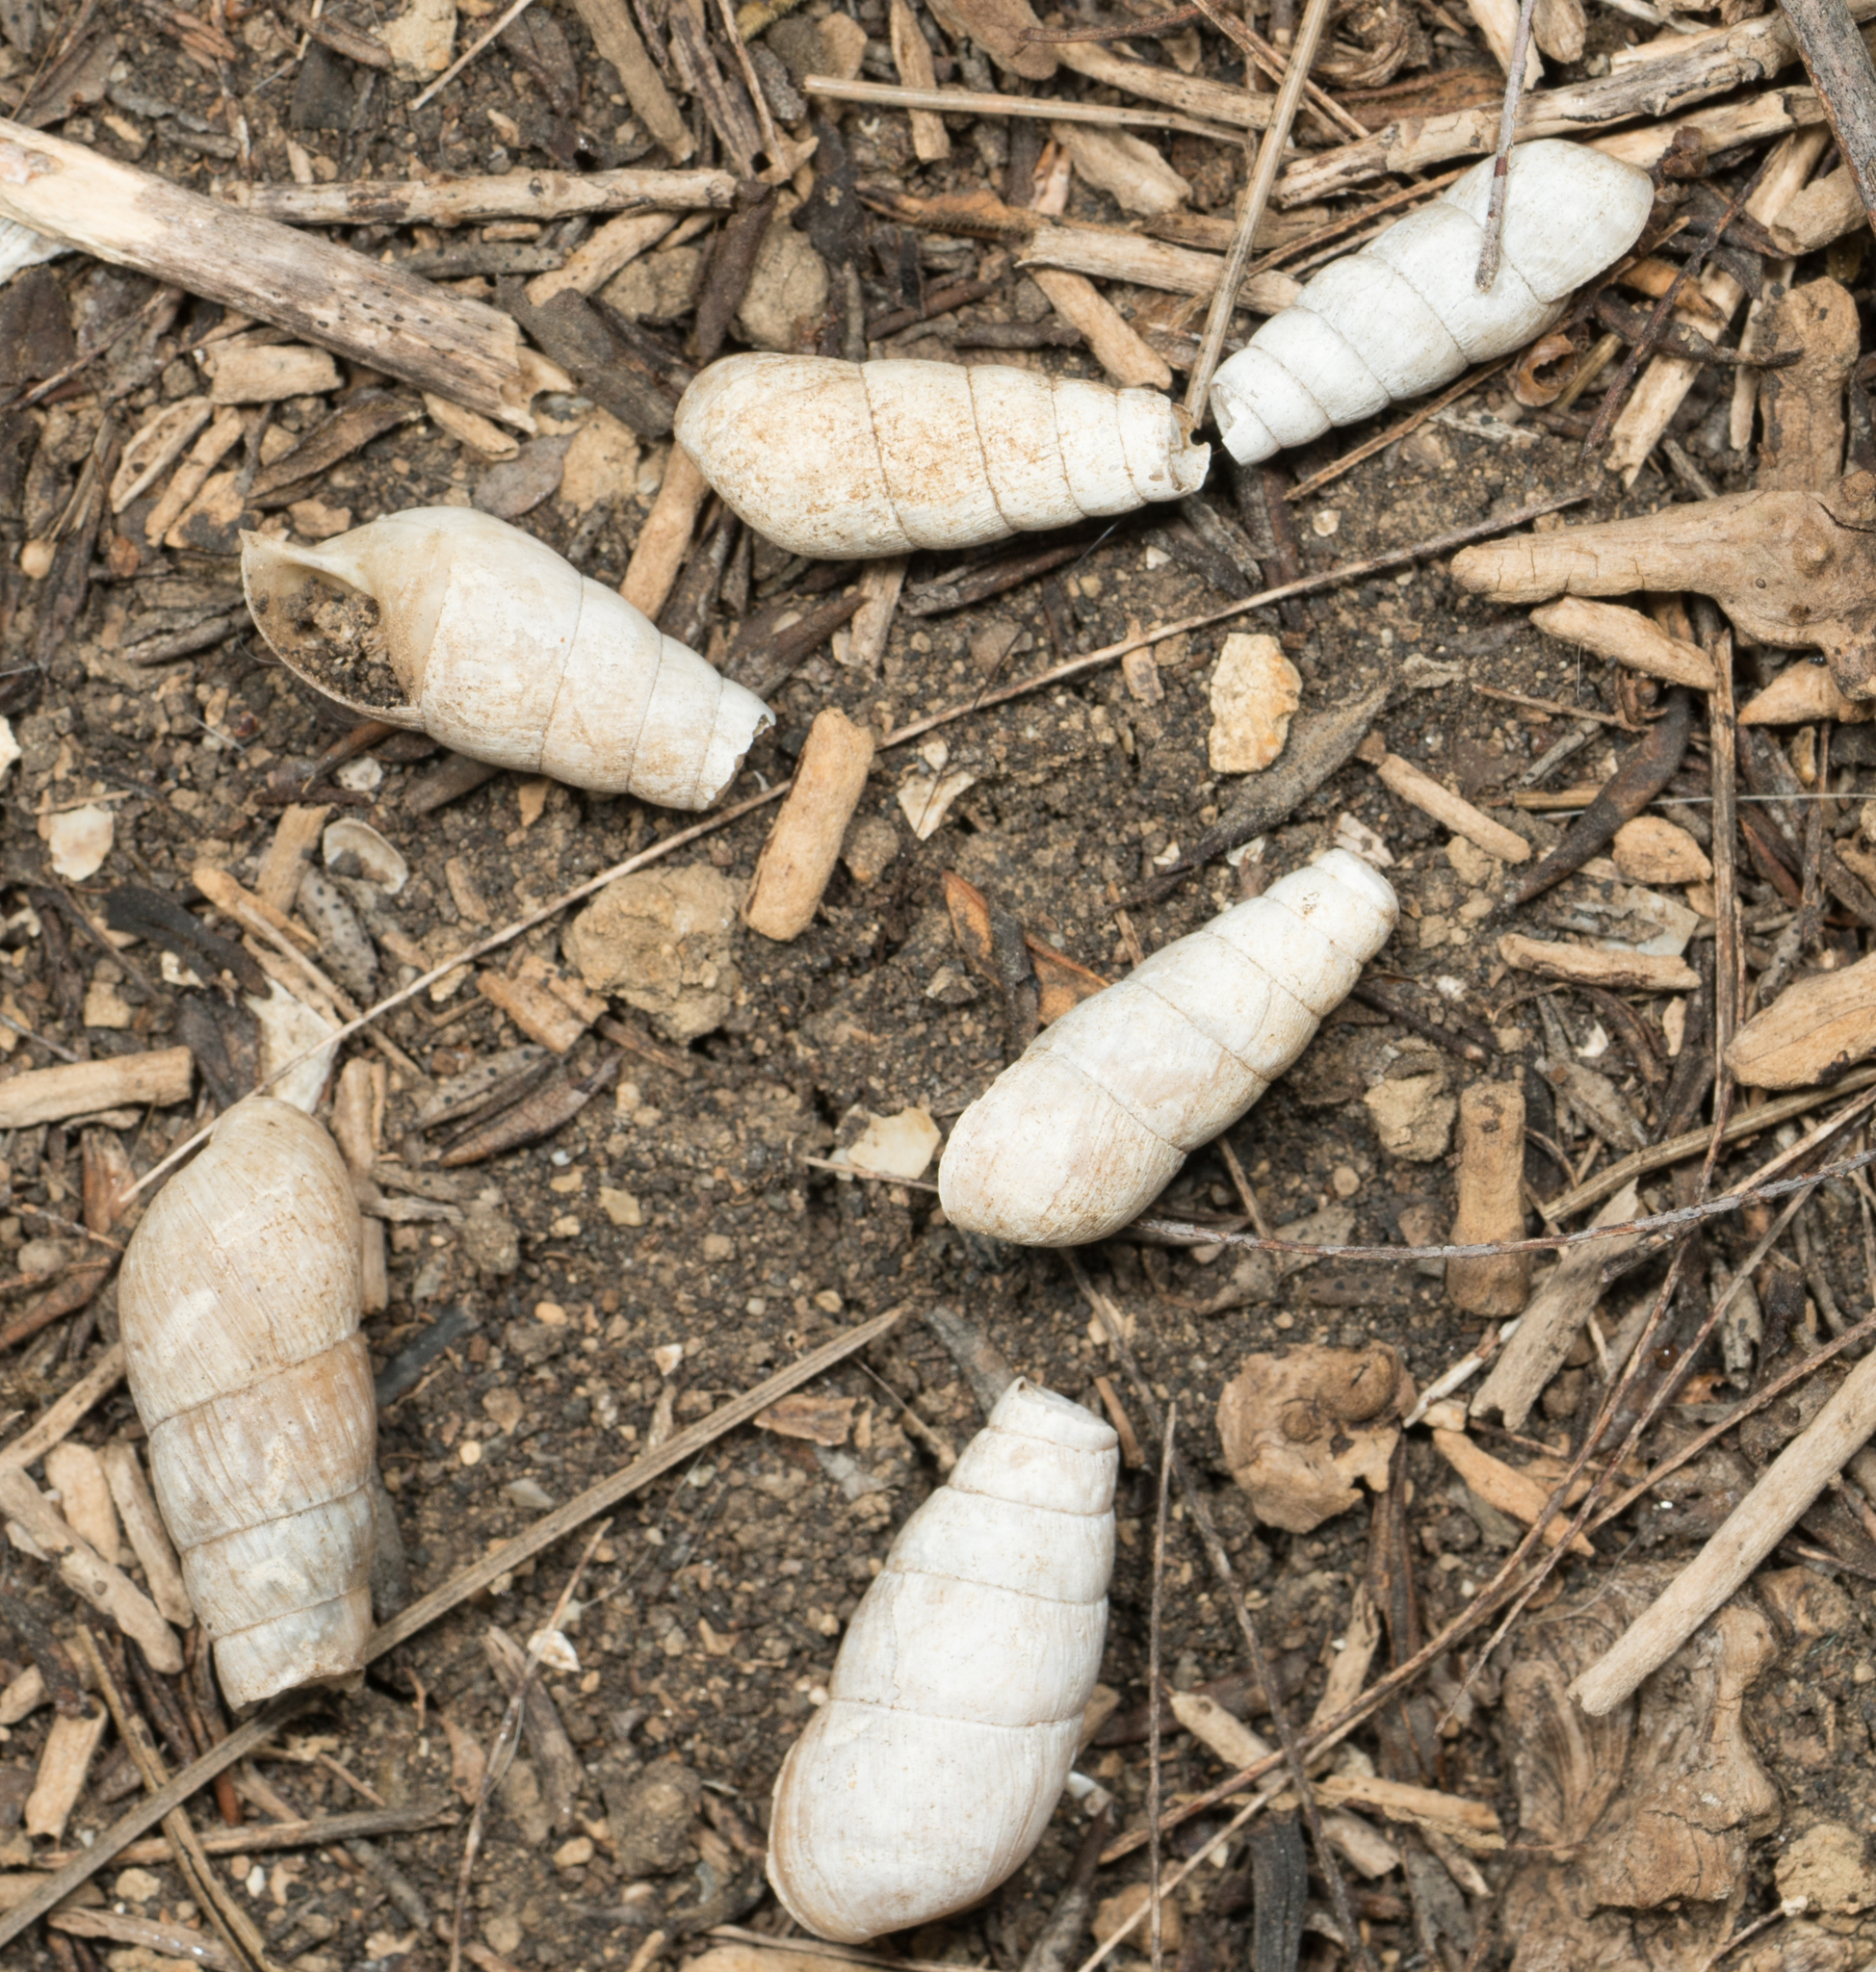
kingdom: Animalia
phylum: Mollusca
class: Gastropoda
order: Stylommatophora
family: Achatinidae
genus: Rumina
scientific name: Rumina decollata
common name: Decollate snail
